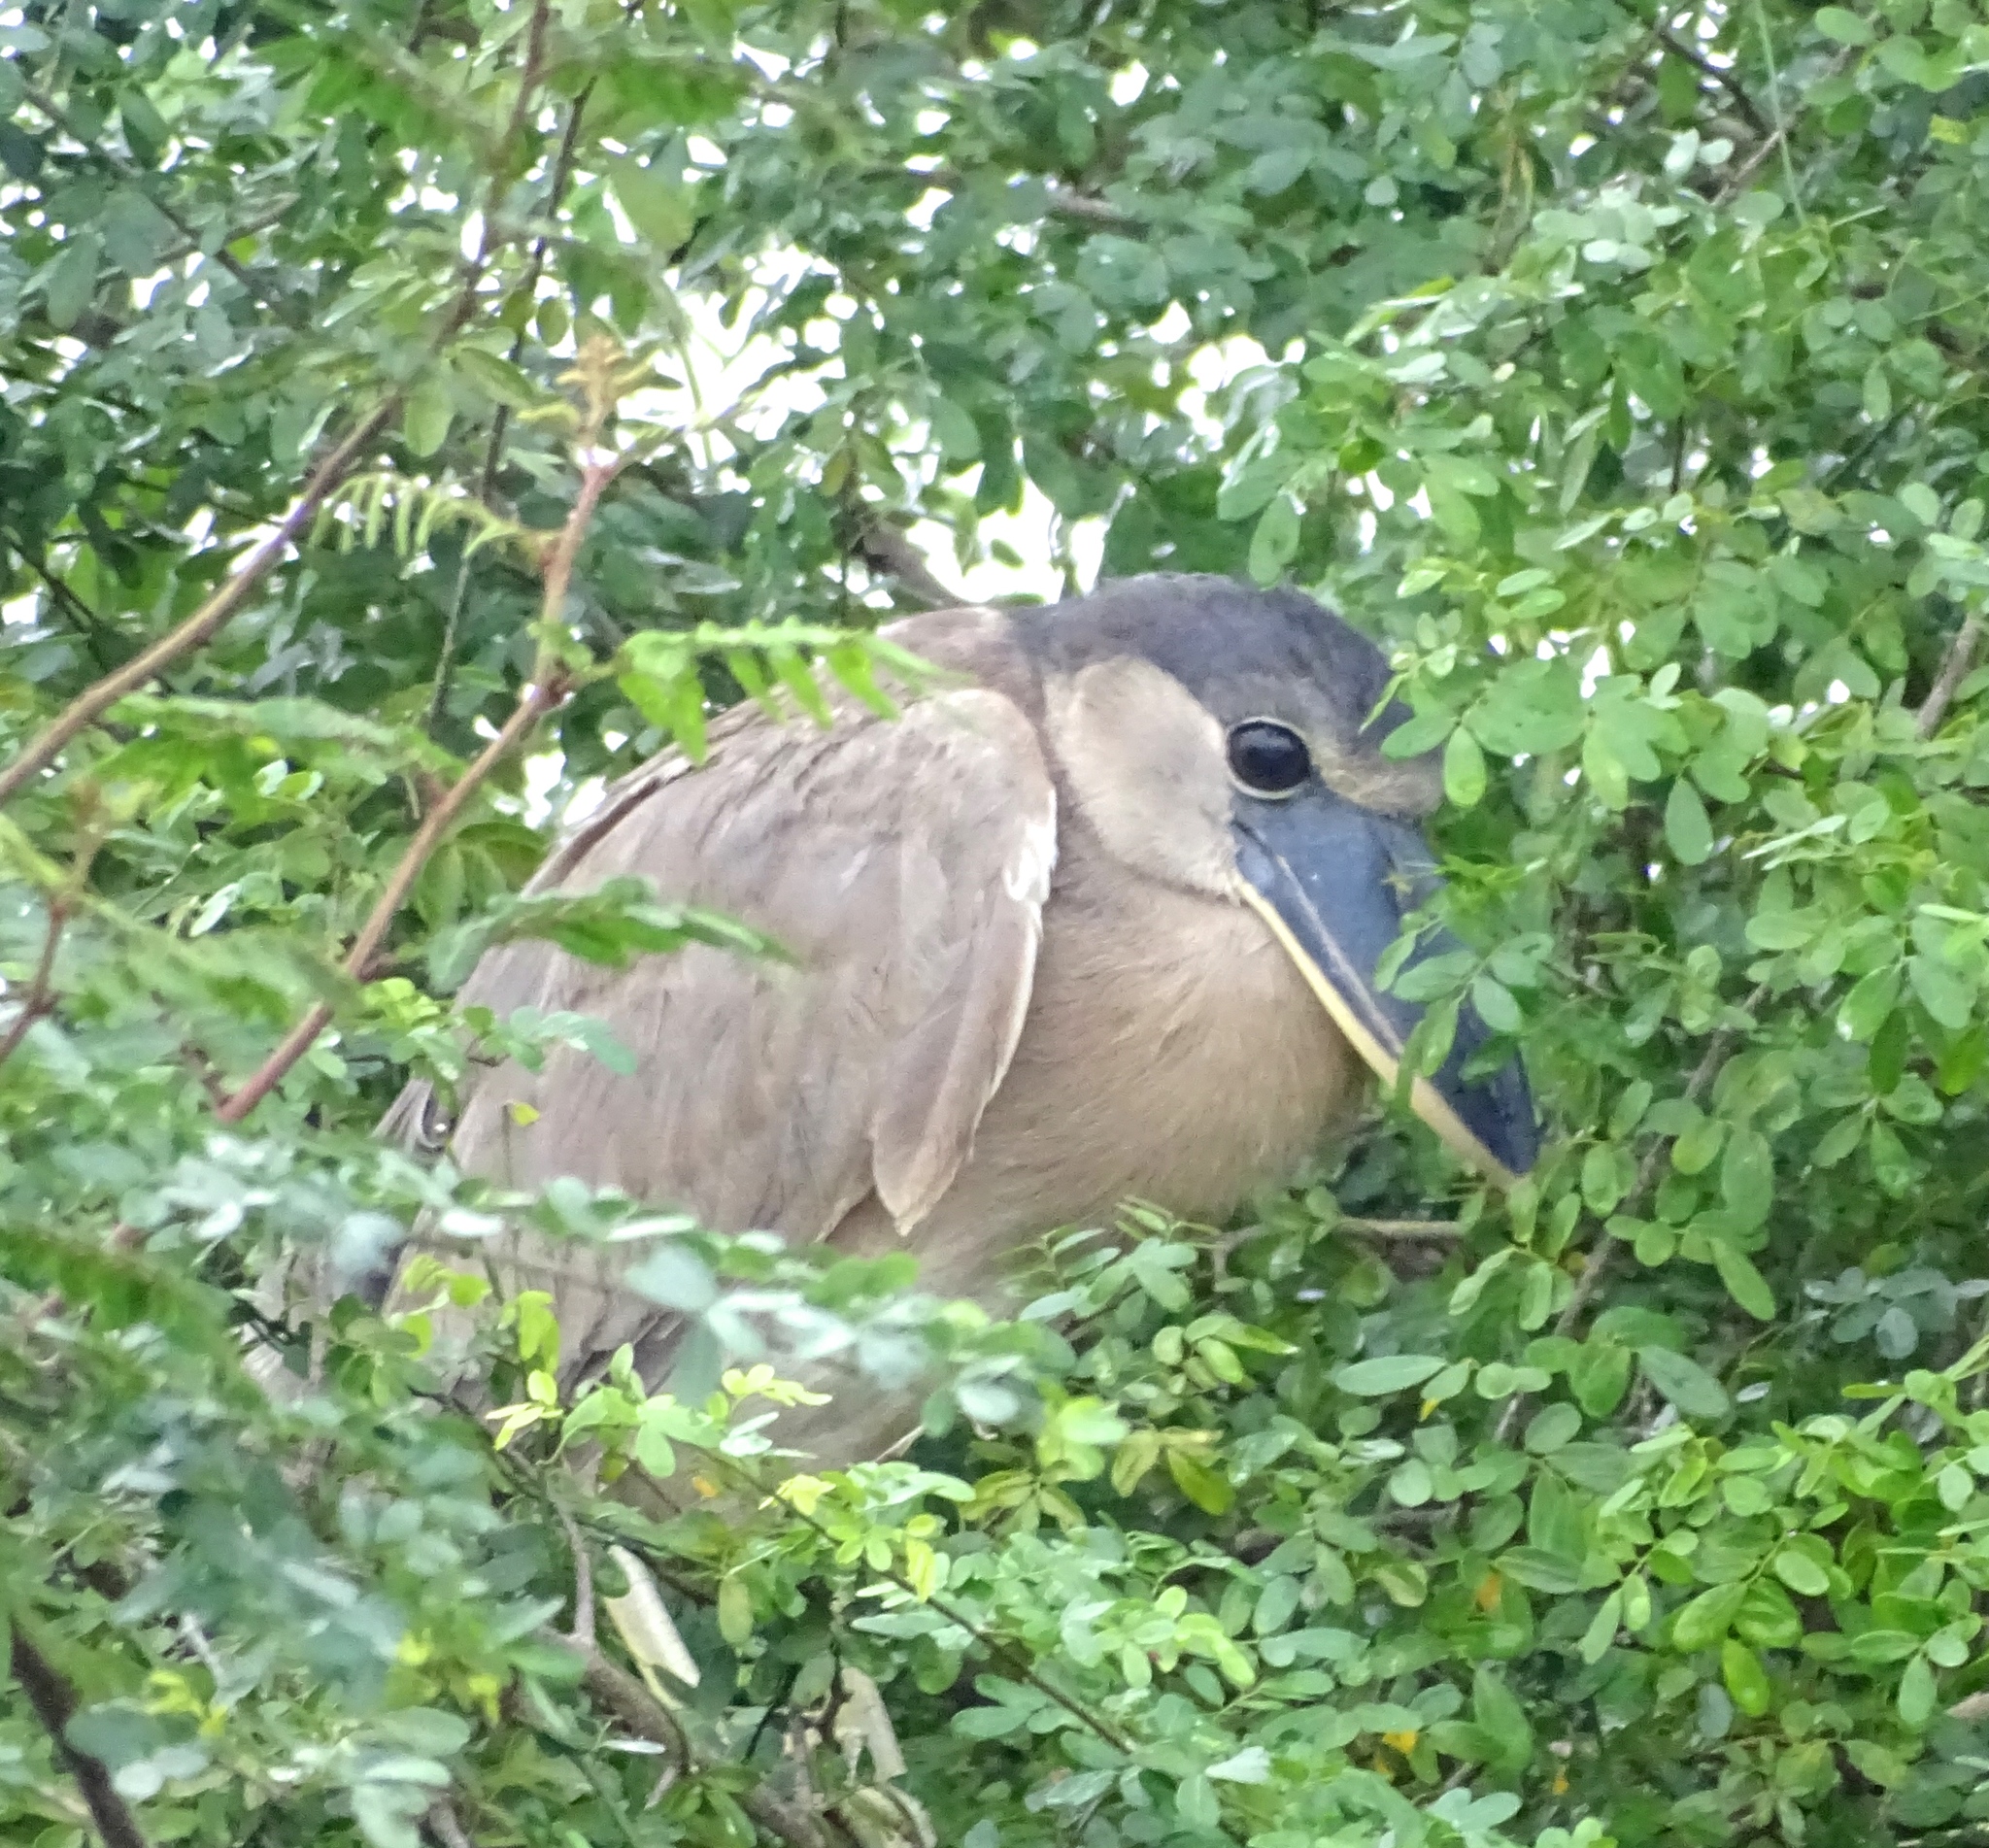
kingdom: Animalia
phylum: Chordata
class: Aves
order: Pelecaniformes
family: Ardeidae
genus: Cochlearius
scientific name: Cochlearius cochlearius
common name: Boat-billed heron
